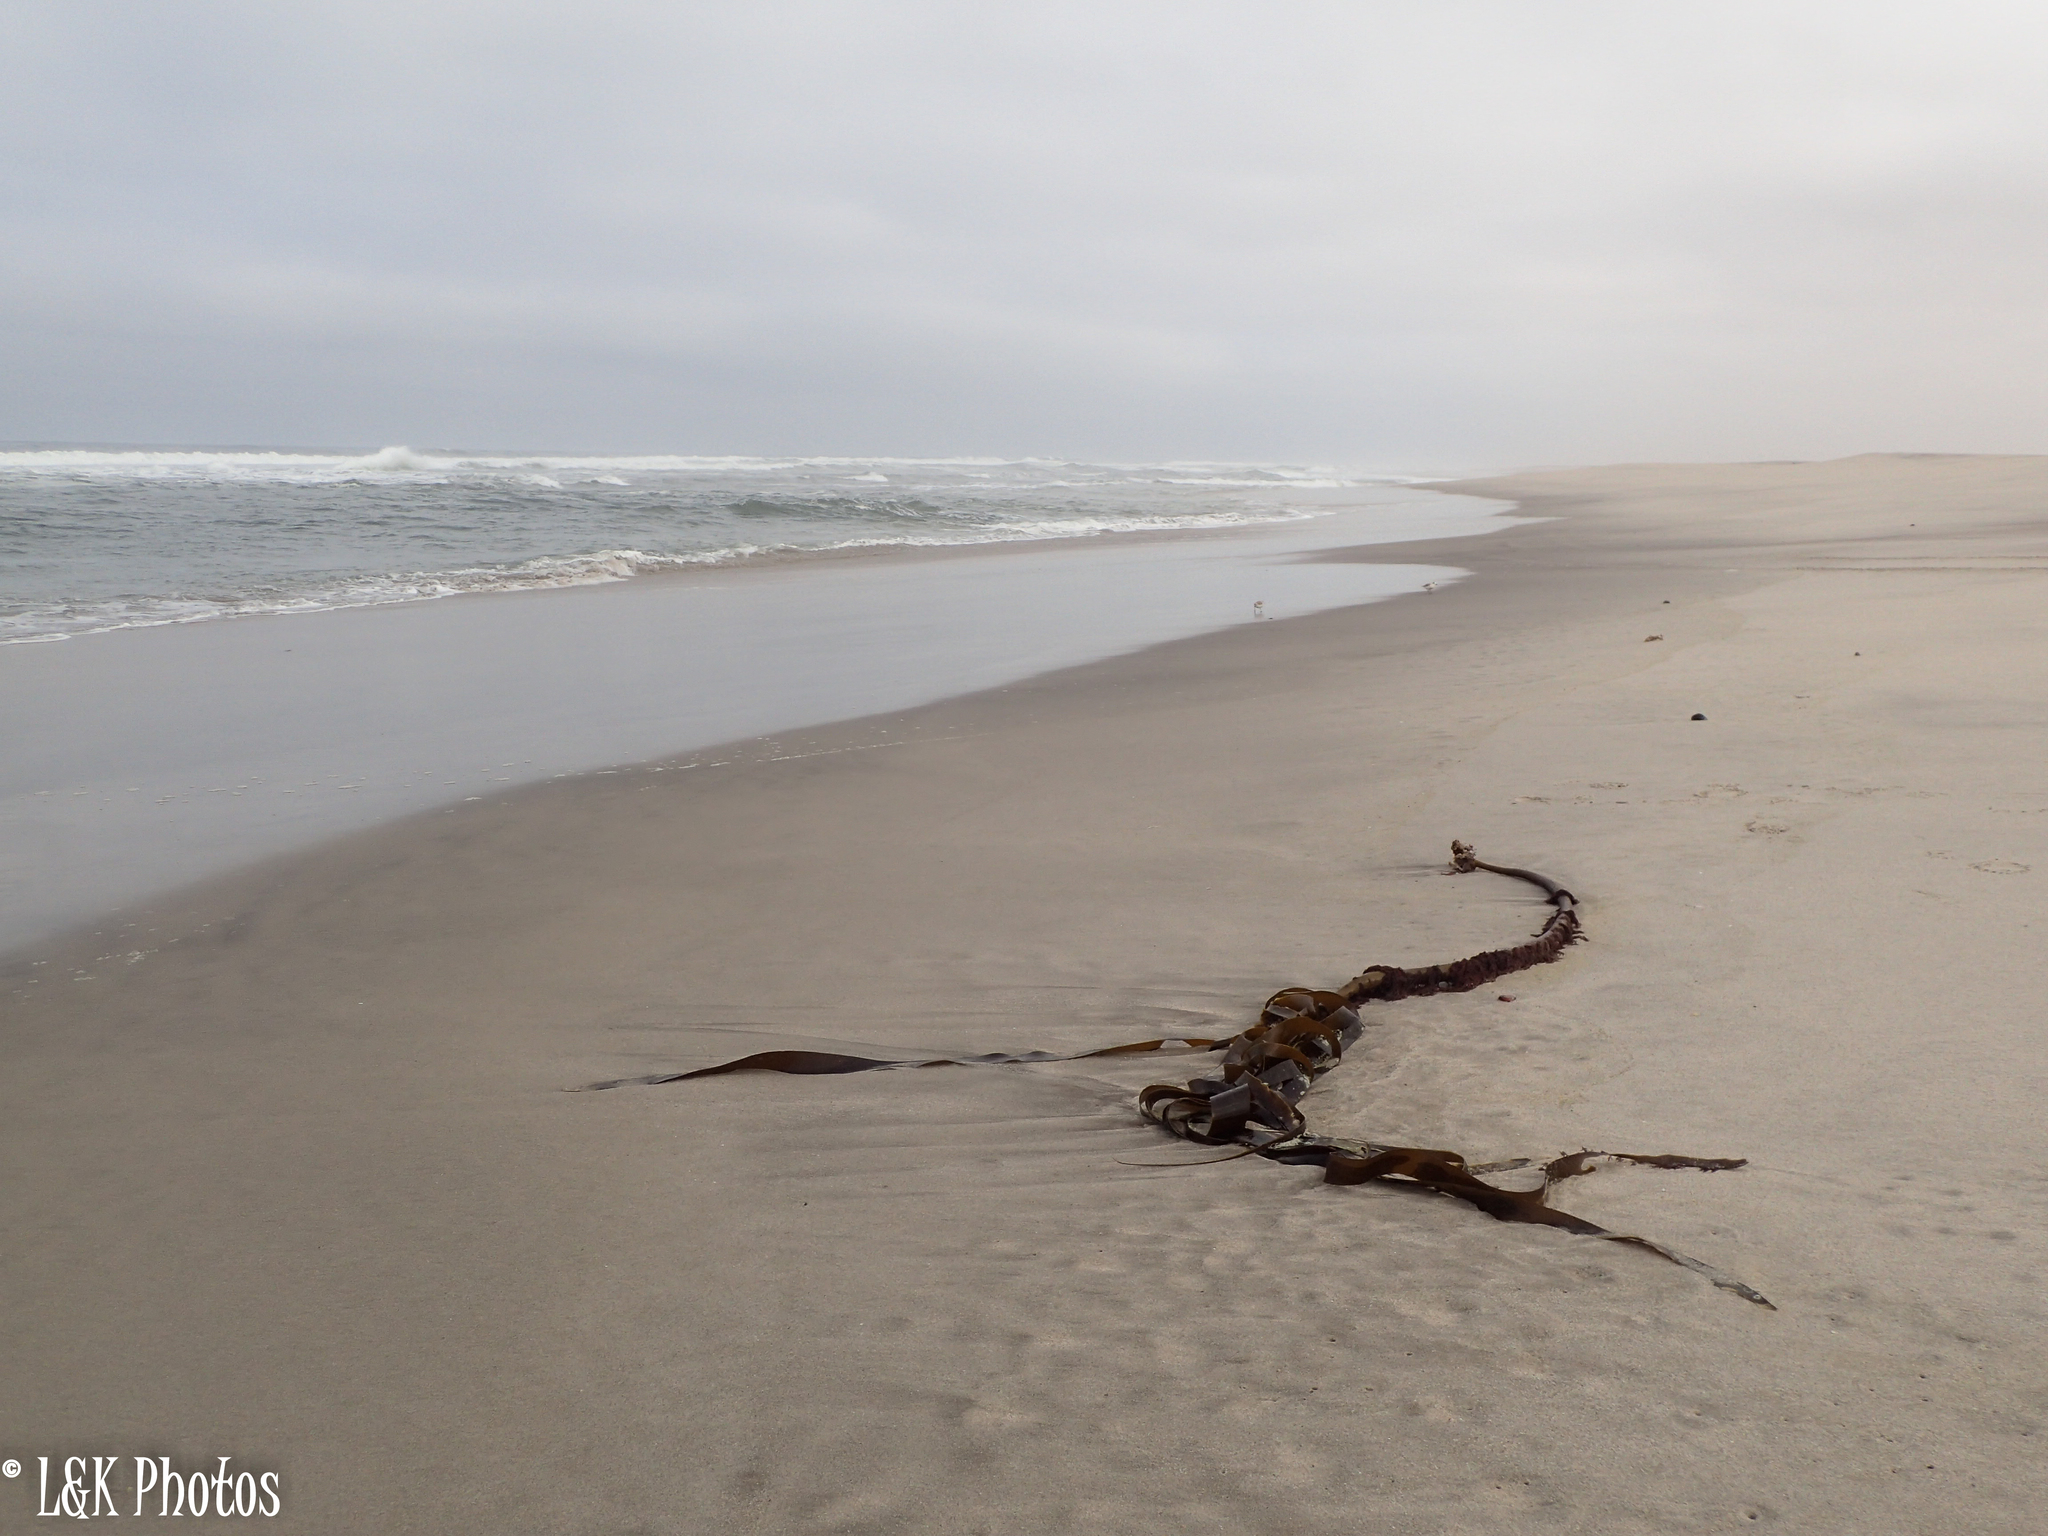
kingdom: Chromista
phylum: Ochrophyta
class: Phaeophyceae
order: Laminariales
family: Lessoniaceae
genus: Ecklonia
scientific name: Ecklonia
